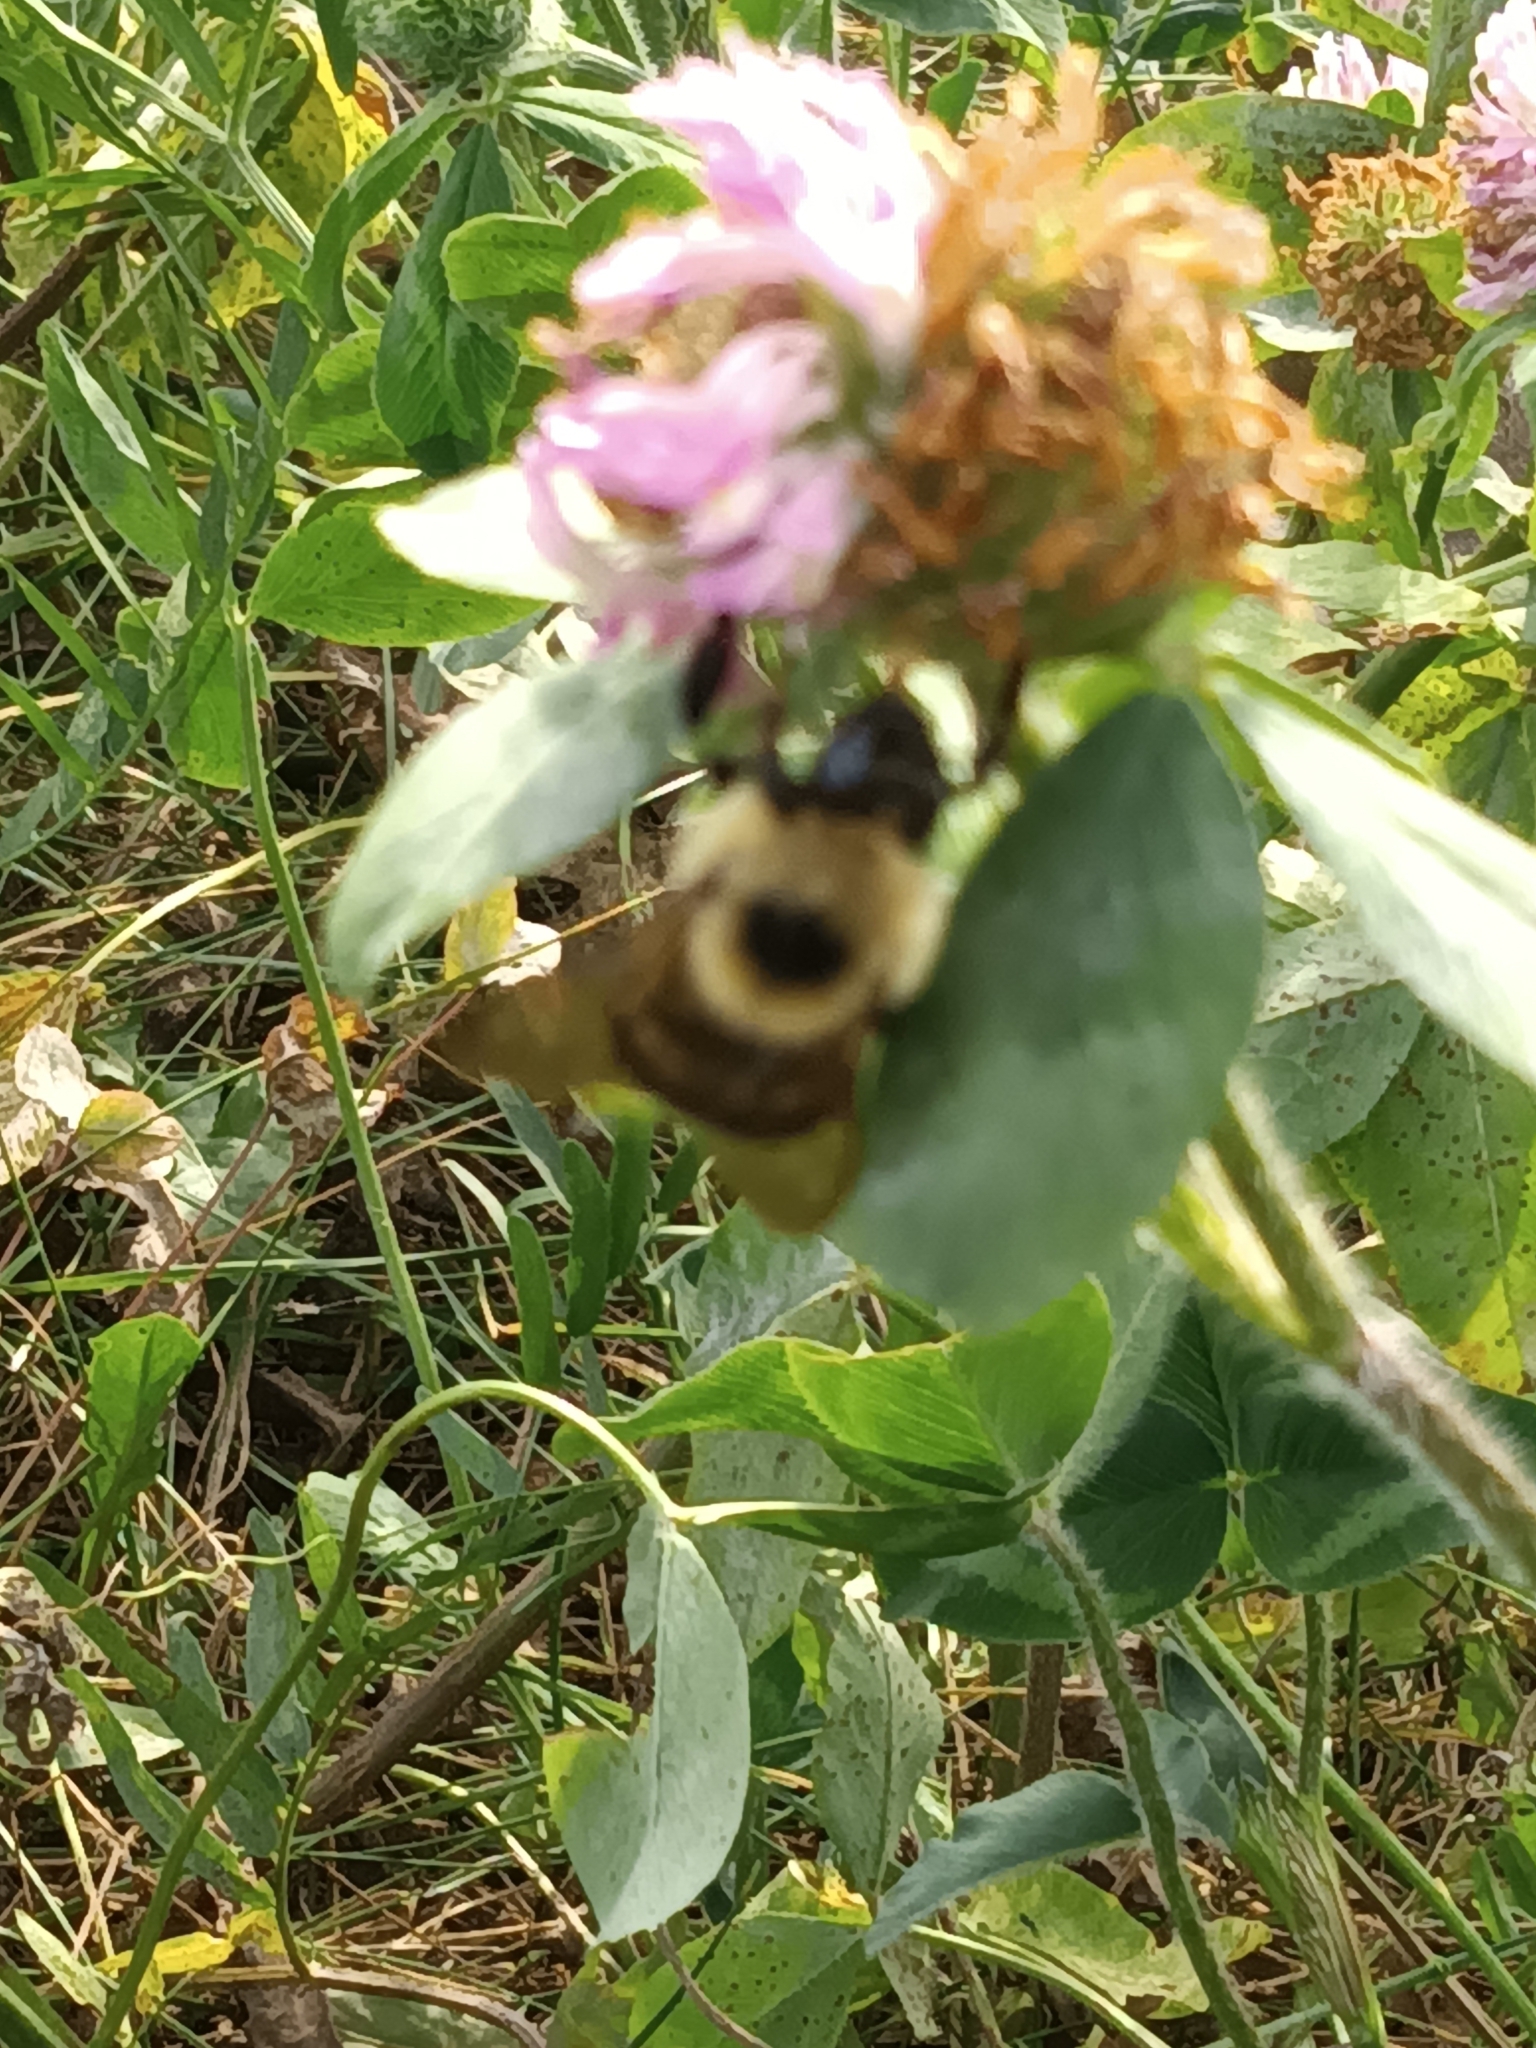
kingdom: Animalia
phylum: Arthropoda
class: Insecta
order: Hymenoptera
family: Apidae
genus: Bombus
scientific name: Bombus rufocinctus
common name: Red-belted bumble bee
